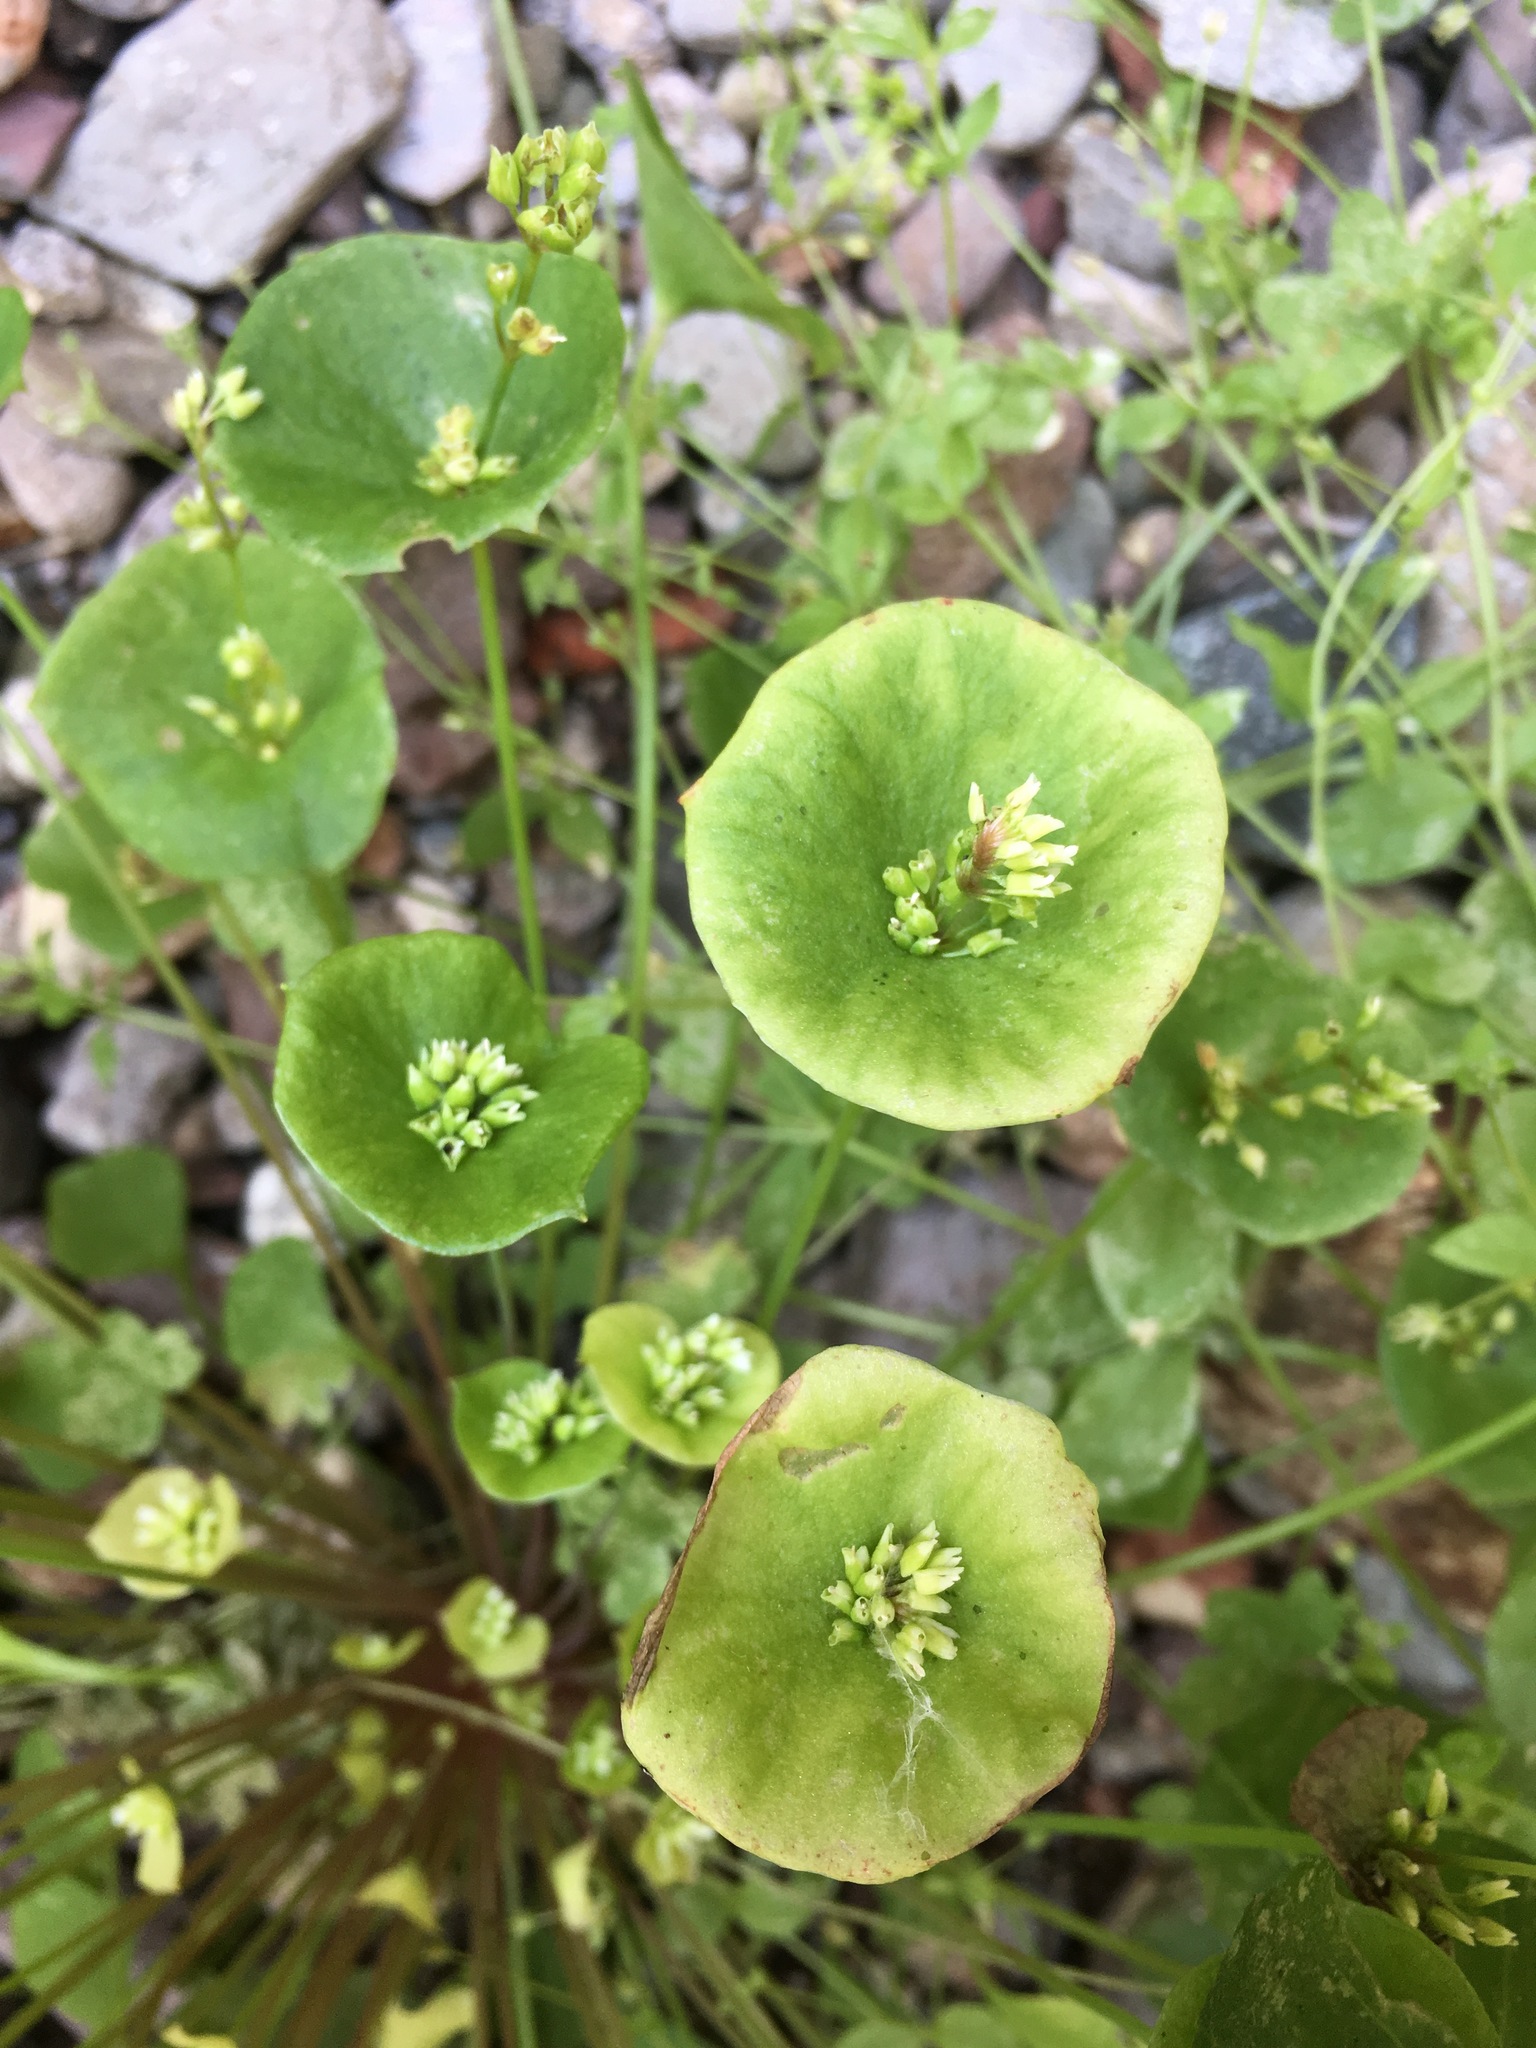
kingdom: Plantae
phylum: Tracheophyta
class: Magnoliopsida
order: Caryophyllales
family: Montiaceae
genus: Claytonia
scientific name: Claytonia perfoliata
